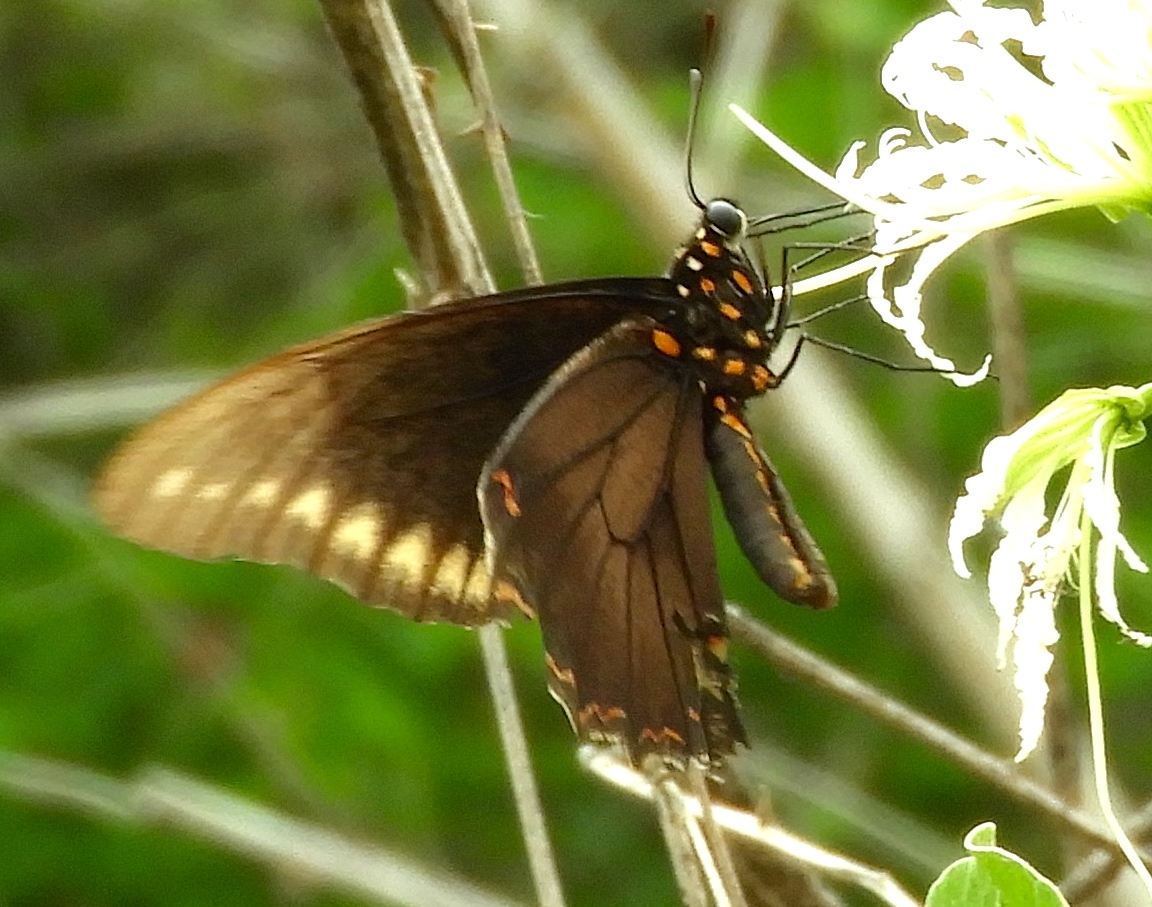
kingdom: Animalia
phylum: Arthropoda
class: Insecta
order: Lepidoptera
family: Papilionidae
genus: Battus
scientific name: Battus polydamas
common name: Polydamas swallowtail
